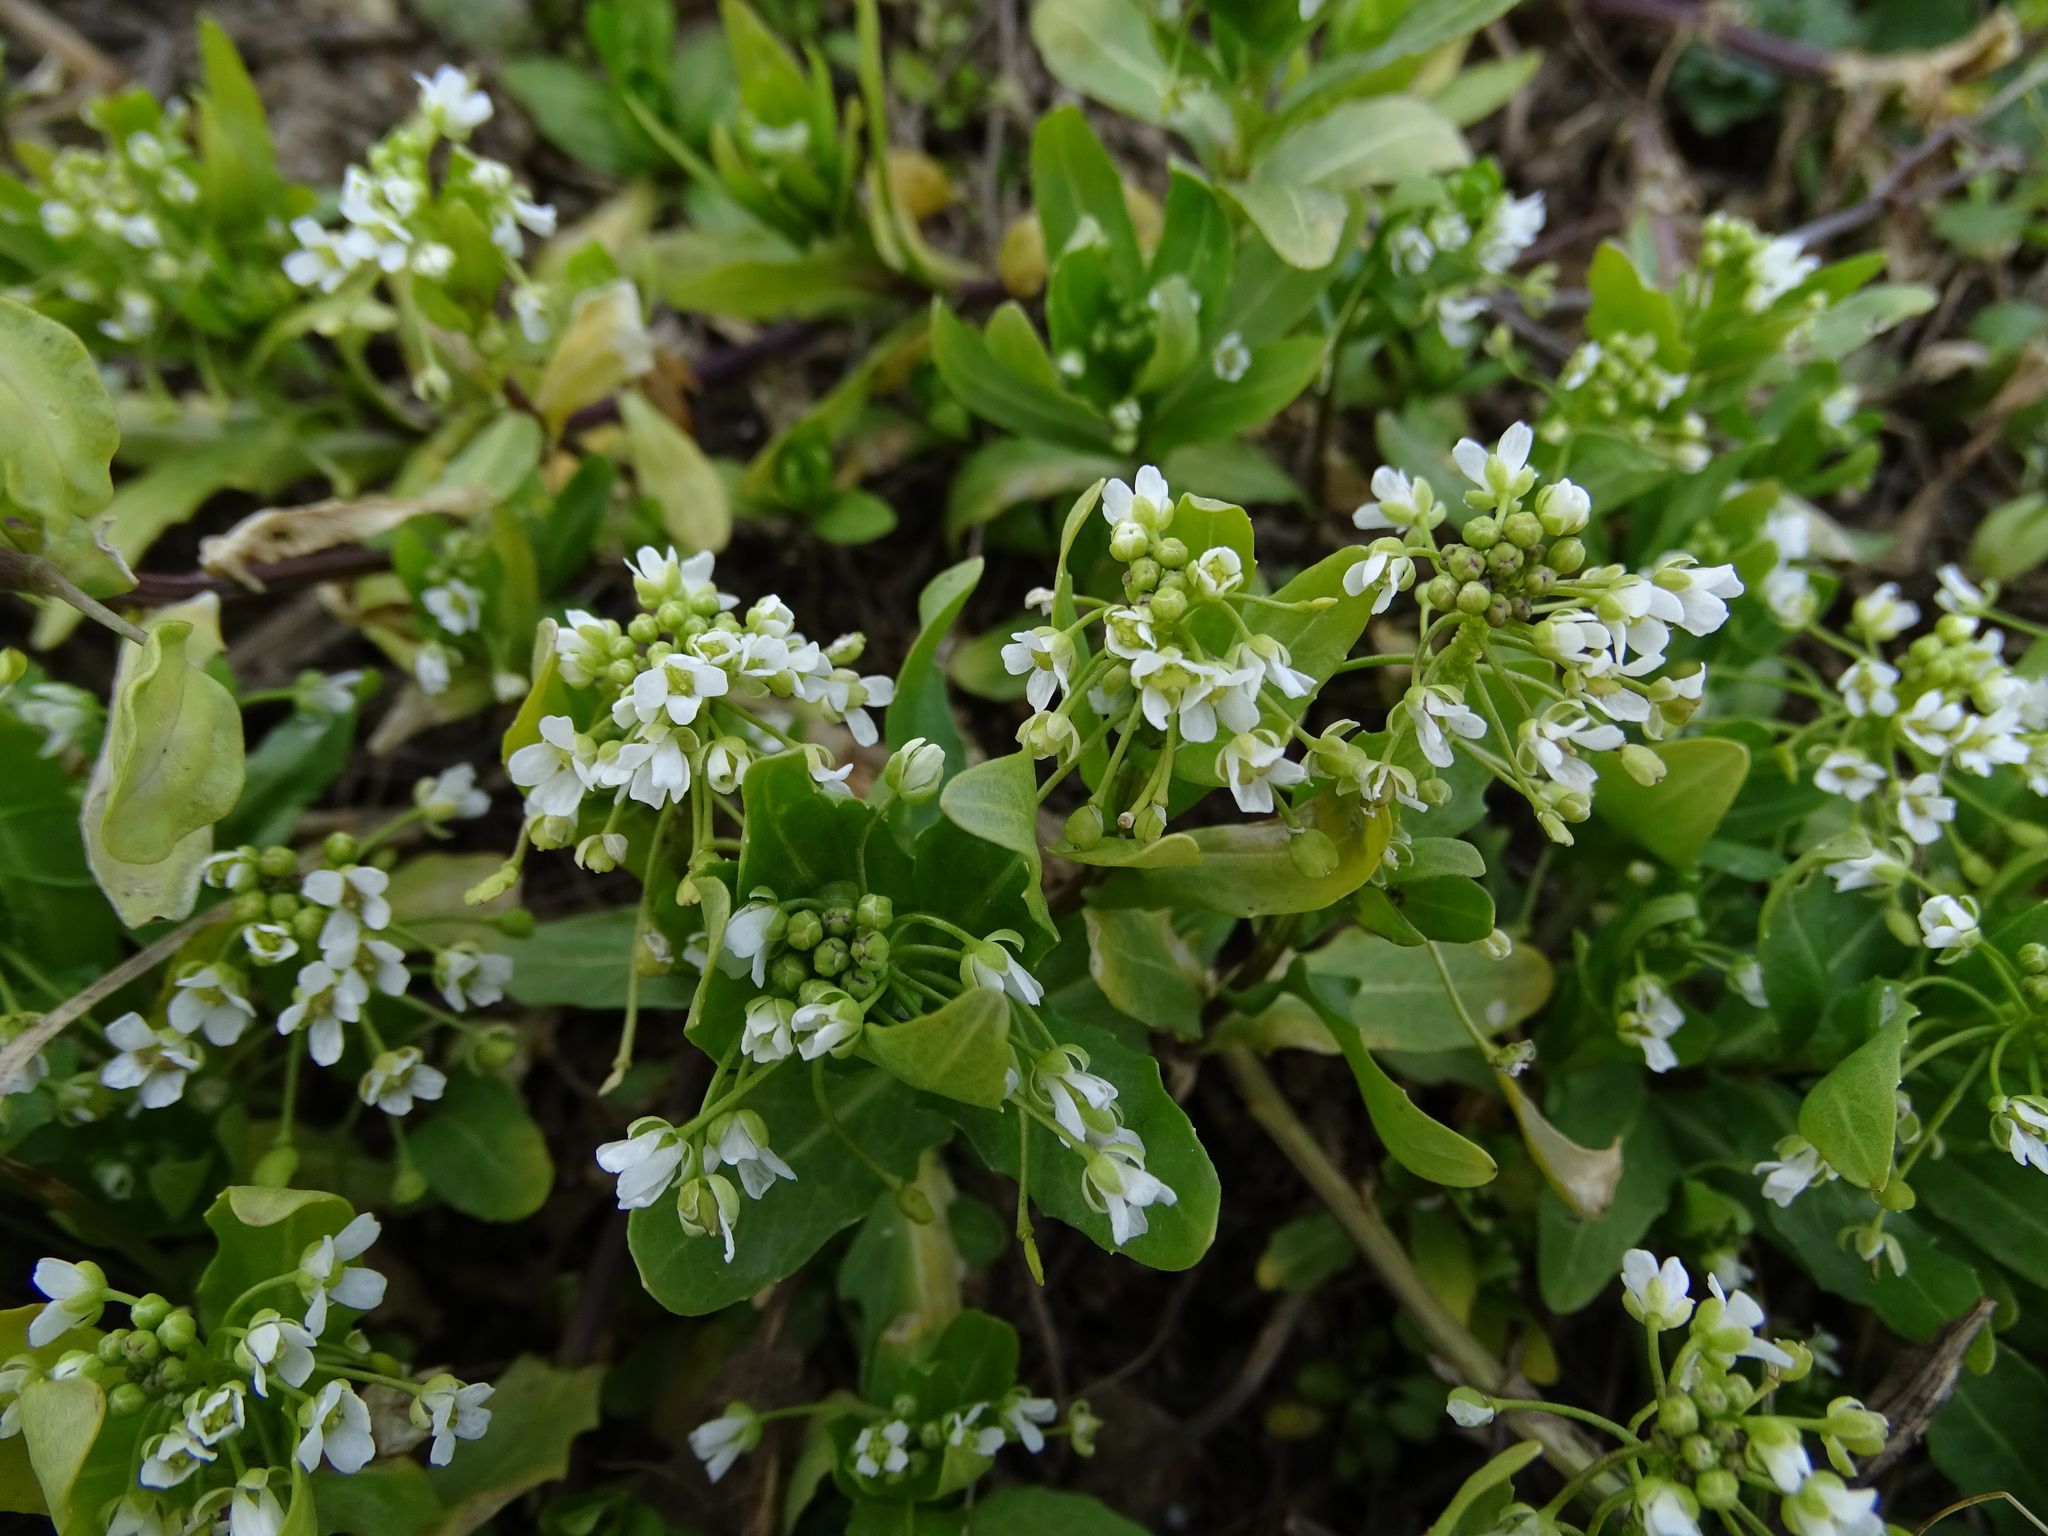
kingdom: Plantae
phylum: Tracheophyta
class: Magnoliopsida
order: Brassicales
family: Brassicaceae
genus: Thlaspi
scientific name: Thlaspi arvense
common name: Field pennycress
